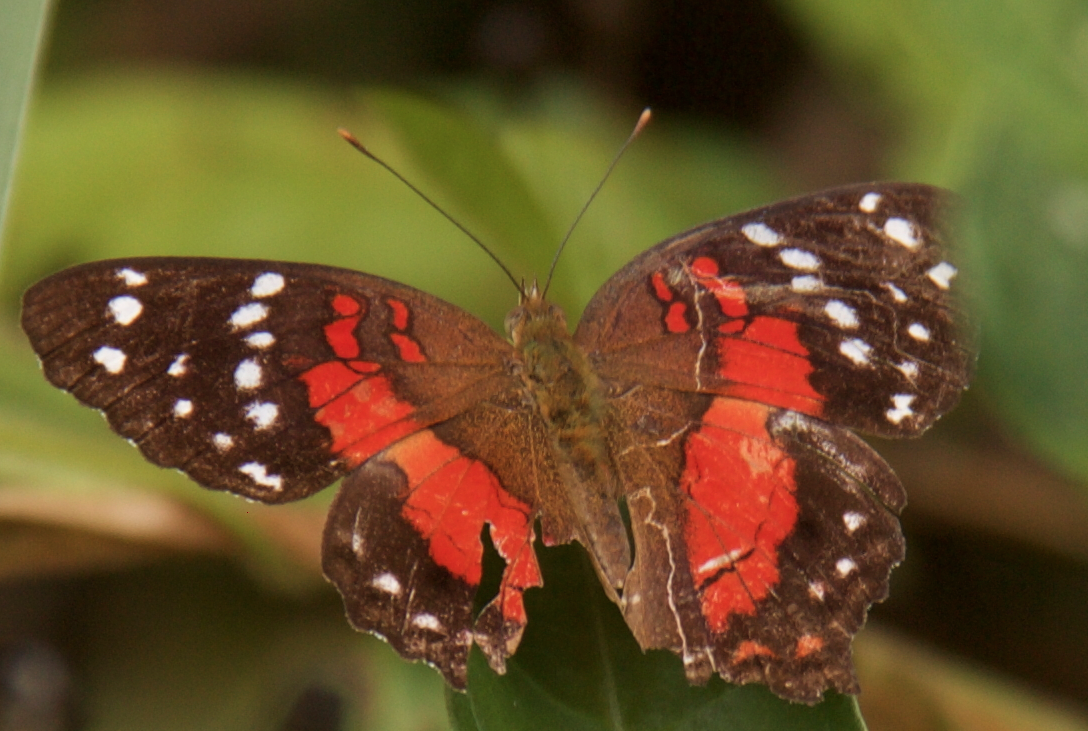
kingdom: Animalia
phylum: Arthropoda
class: Insecta
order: Lepidoptera
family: Nymphalidae
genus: Anartia
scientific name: Anartia amathea
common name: Red peacock
